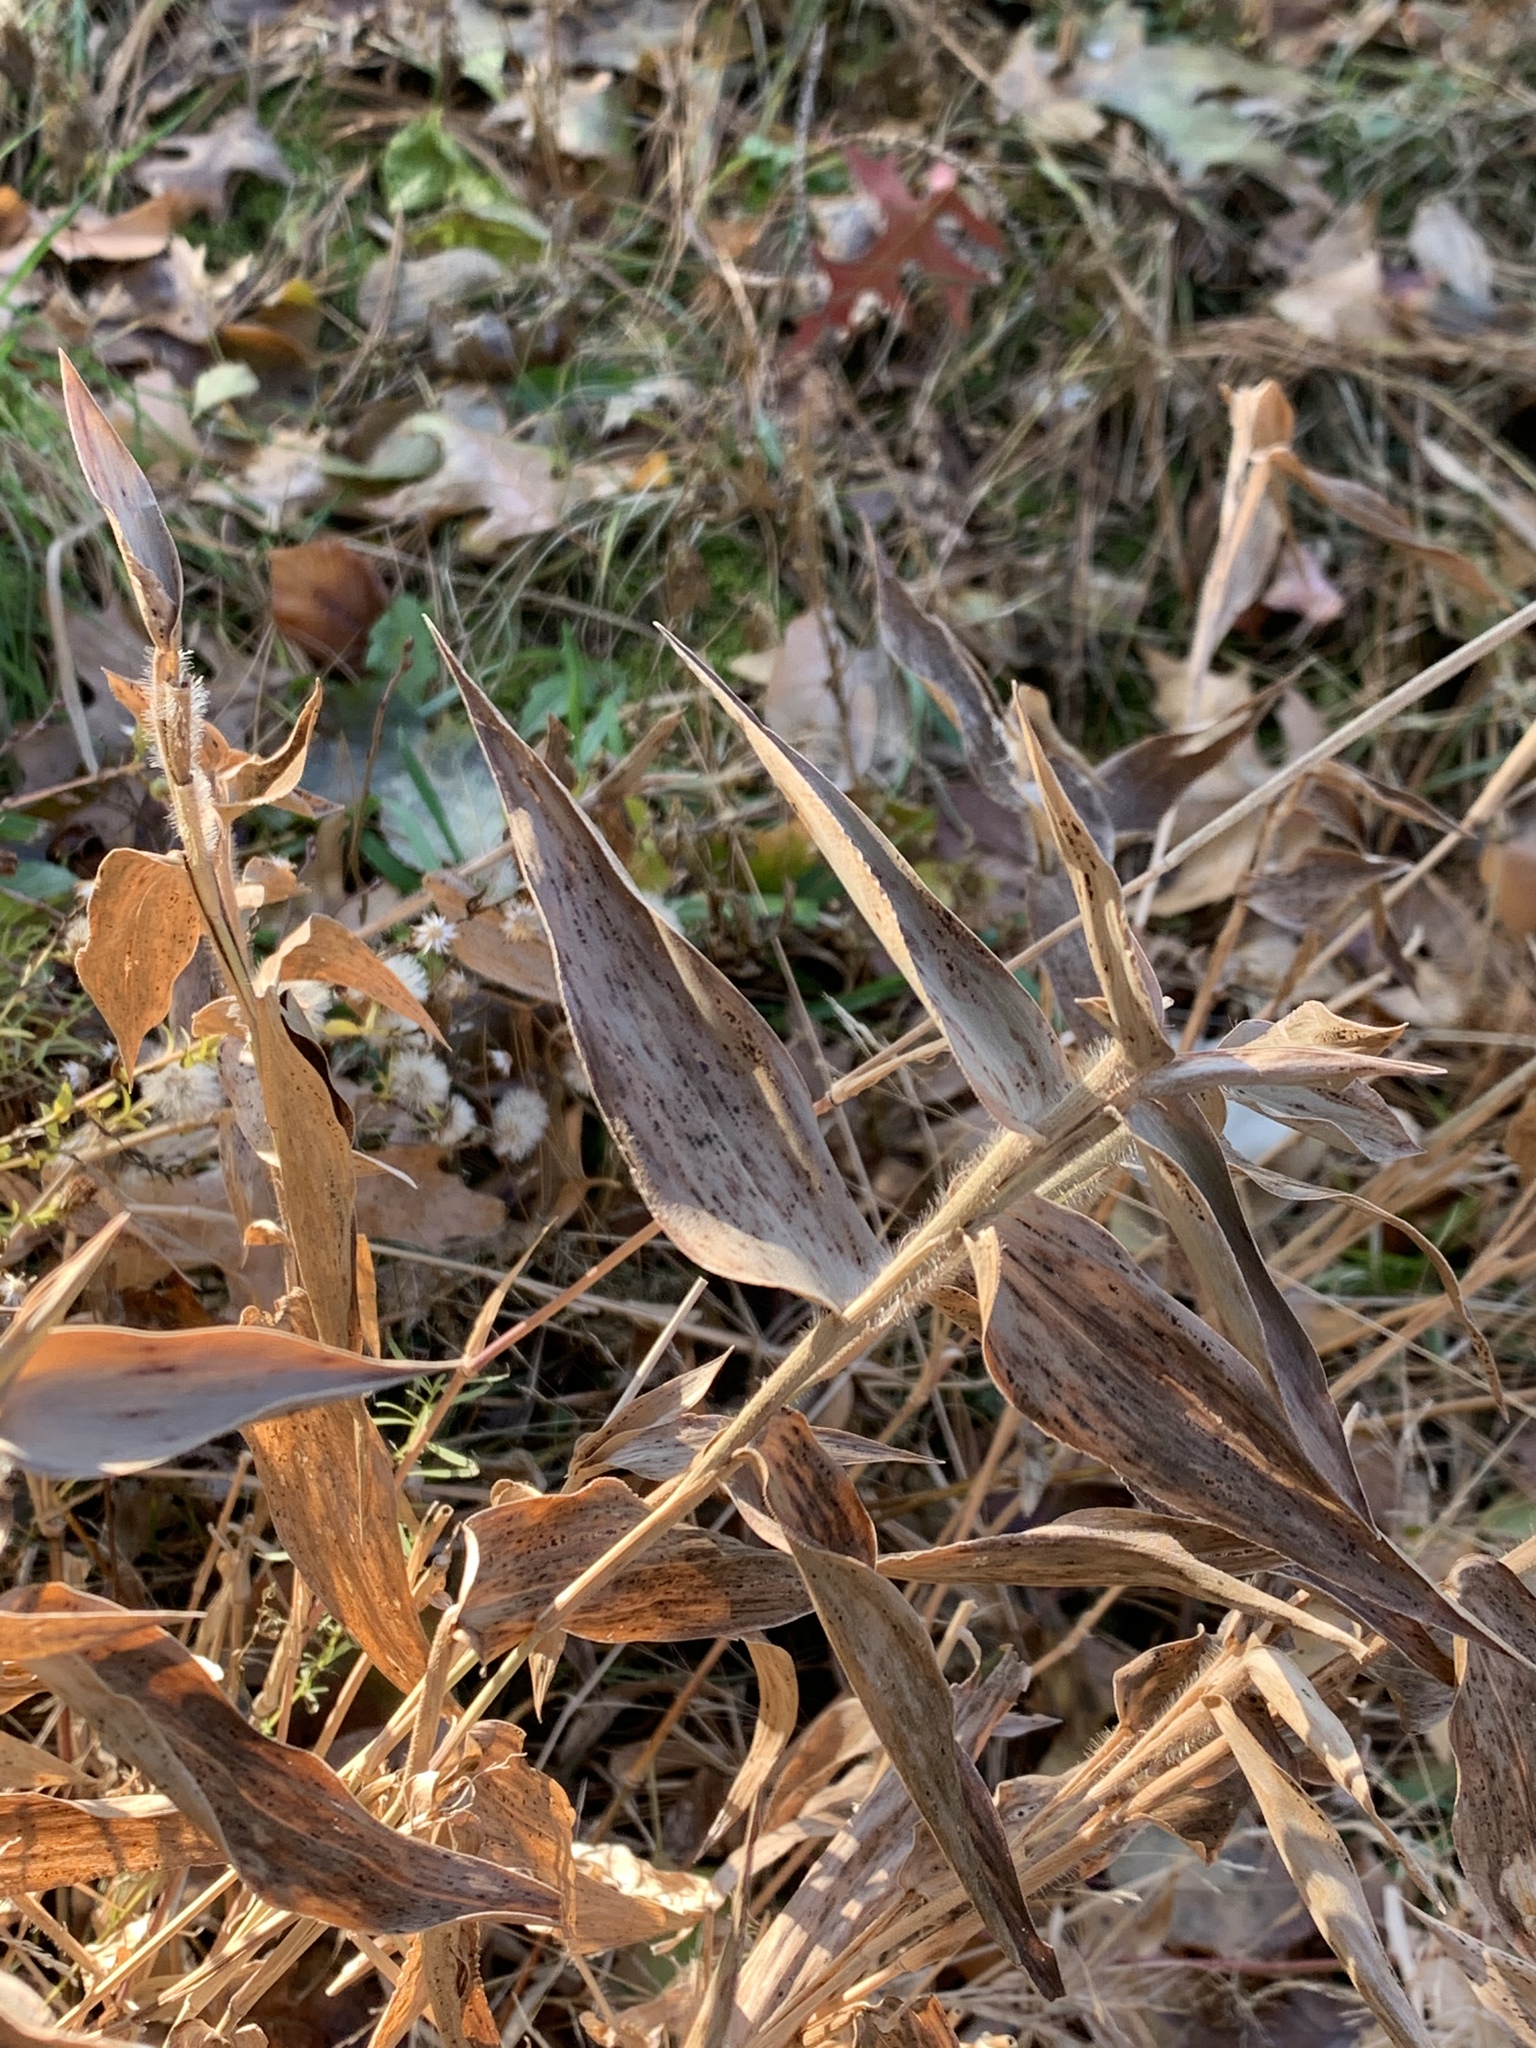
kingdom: Plantae
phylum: Tracheophyta
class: Liliopsida
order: Poales
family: Poaceae
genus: Dichanthelium
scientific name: Dichanthelium clandestinum
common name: Deer-tongue grass
